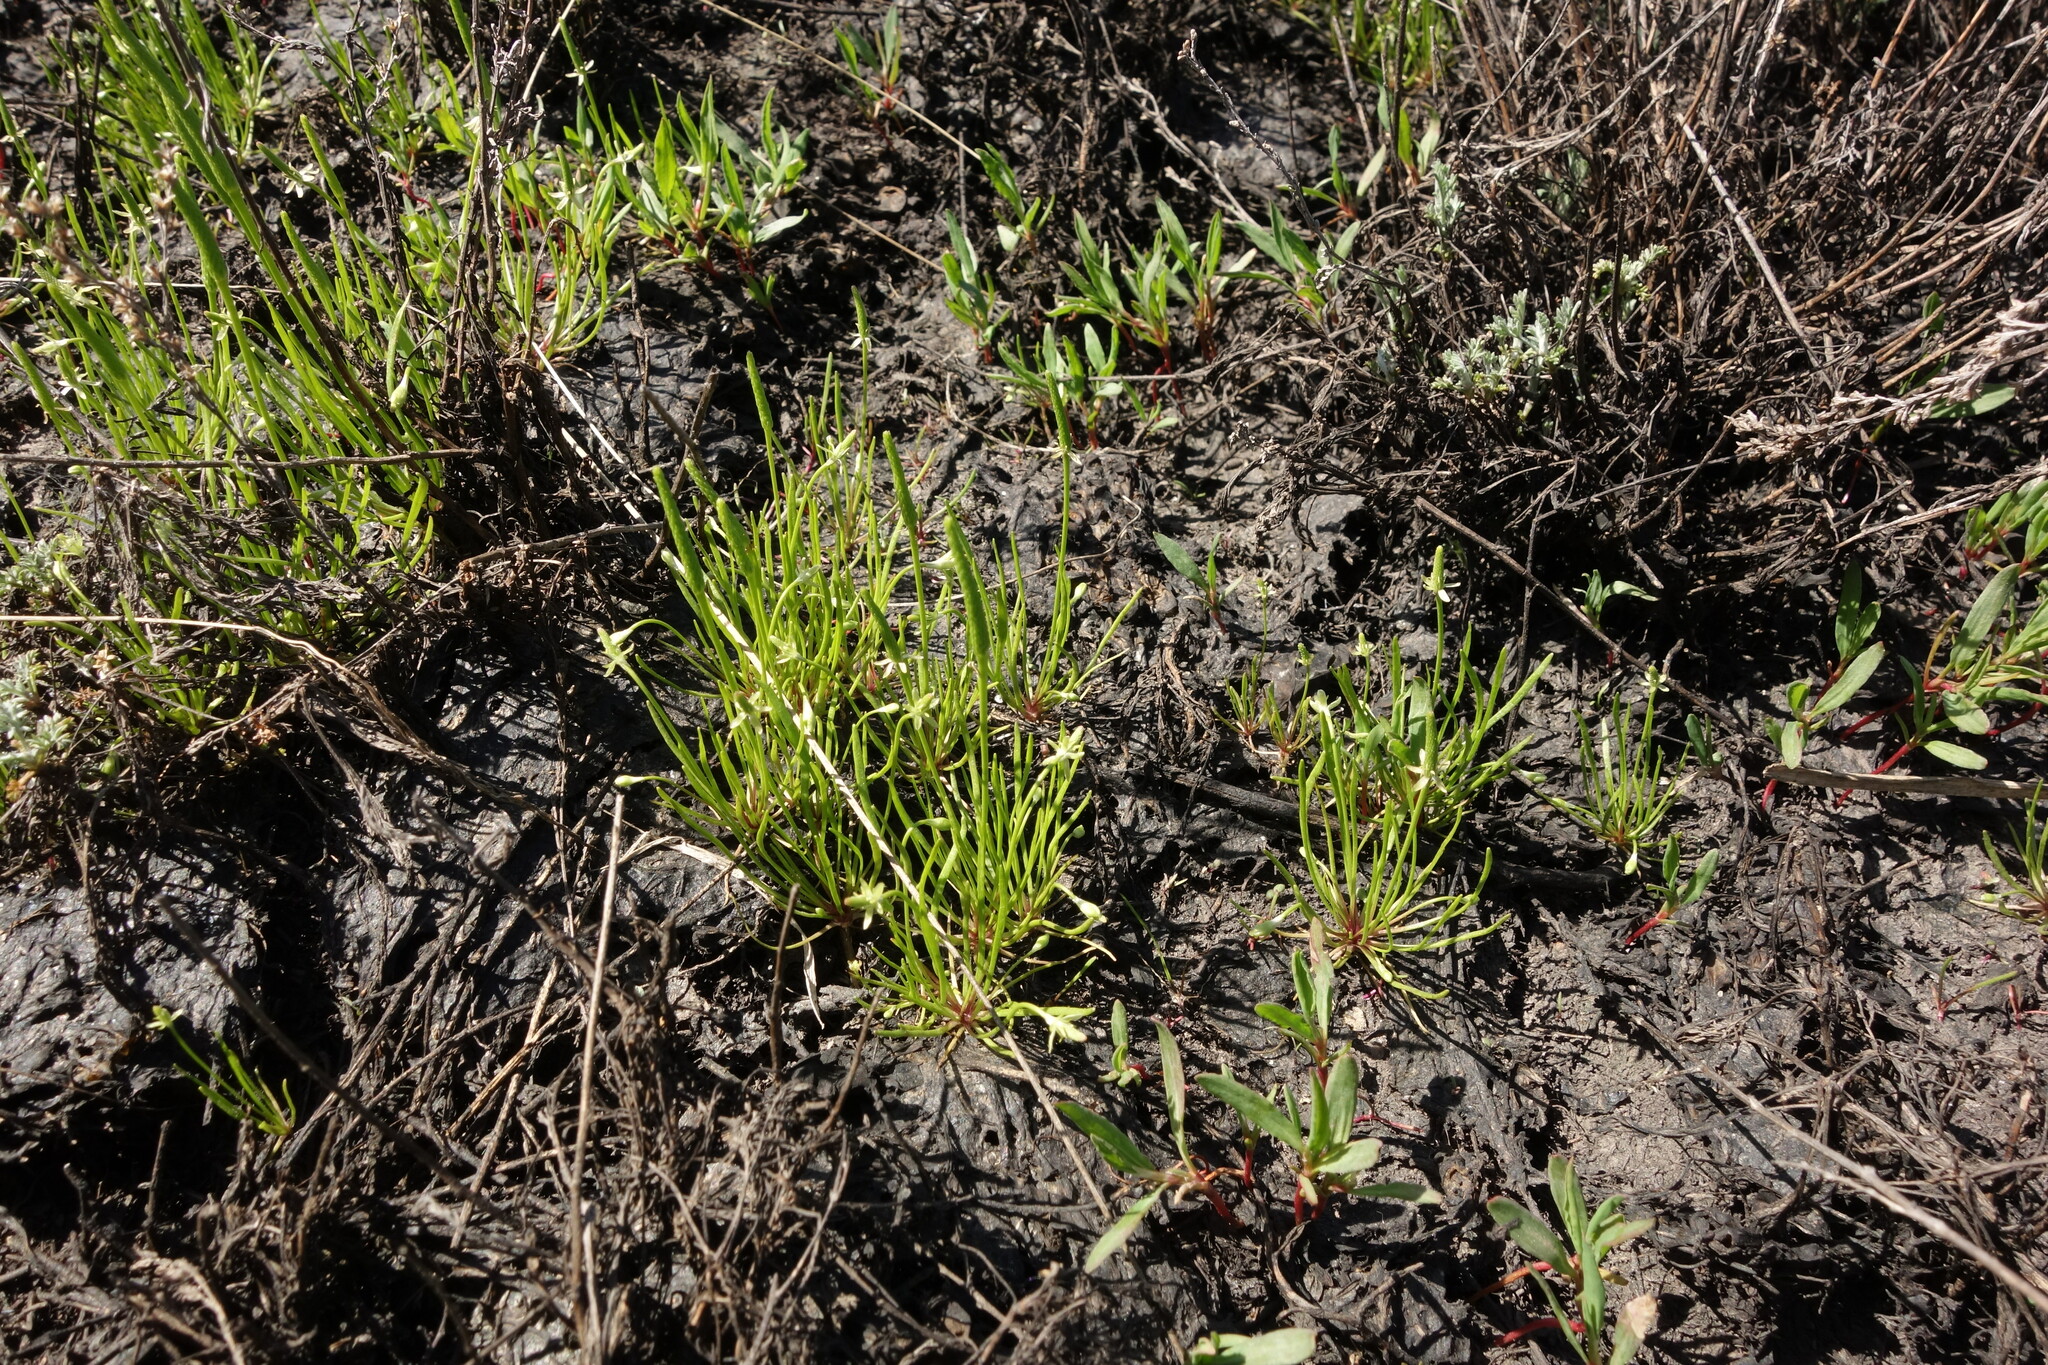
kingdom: Plantae
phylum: Tracheophyta
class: Magnoliopsida
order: Ranunculales
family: Ranunculaceae
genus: Myosurus
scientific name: Myosurus minimus
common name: Mousetail
